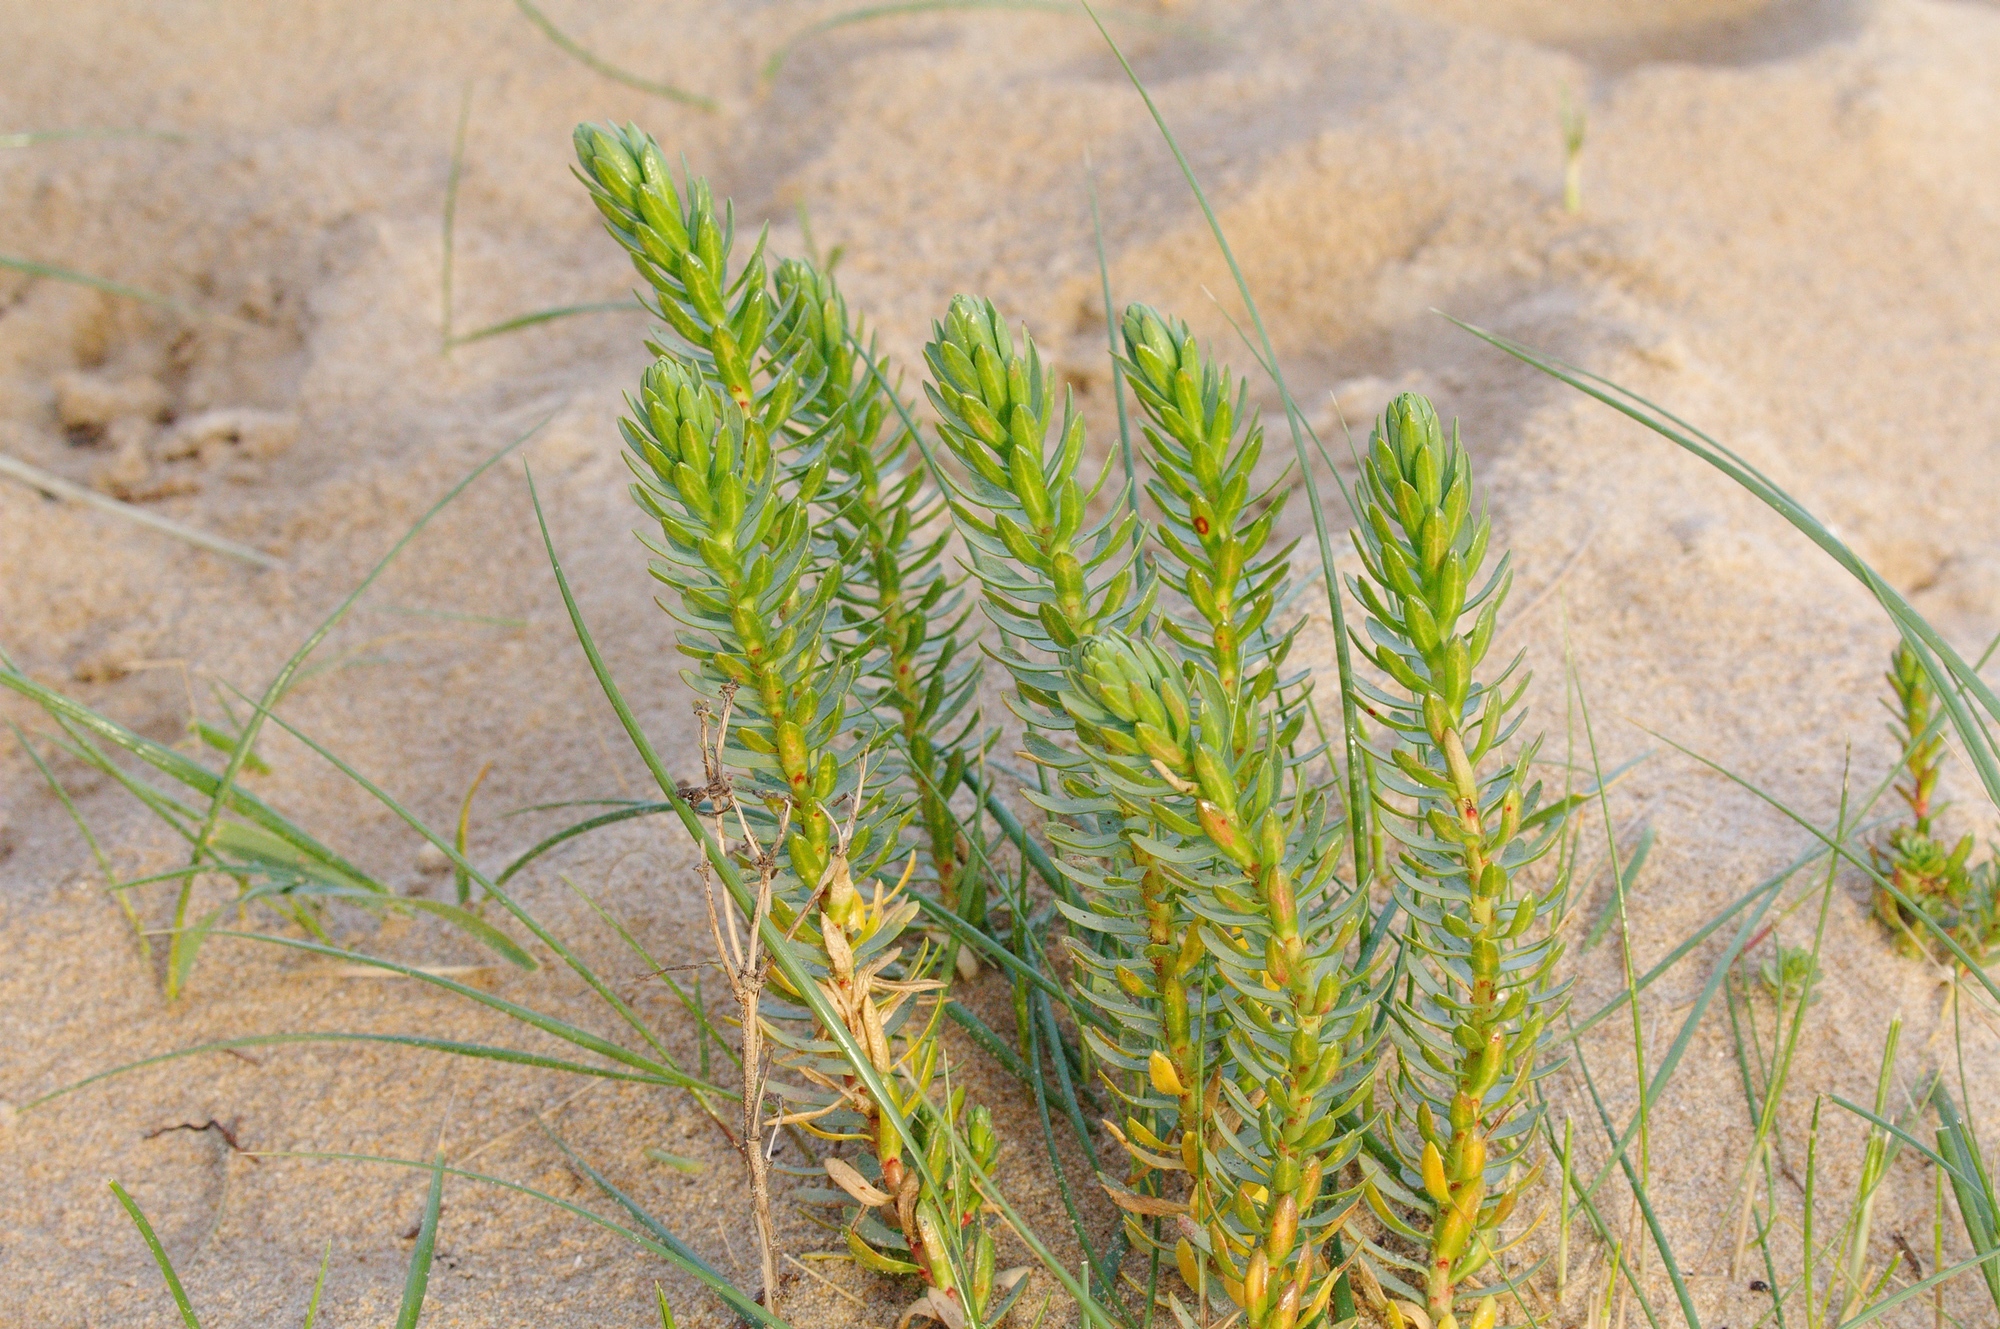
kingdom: Plantae
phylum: Tracheophyta
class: Magnoliopsida
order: Malpighiales
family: Euphorbiaceae
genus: Euphorbia
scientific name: Euphorbia paralias
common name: Sea spurge
